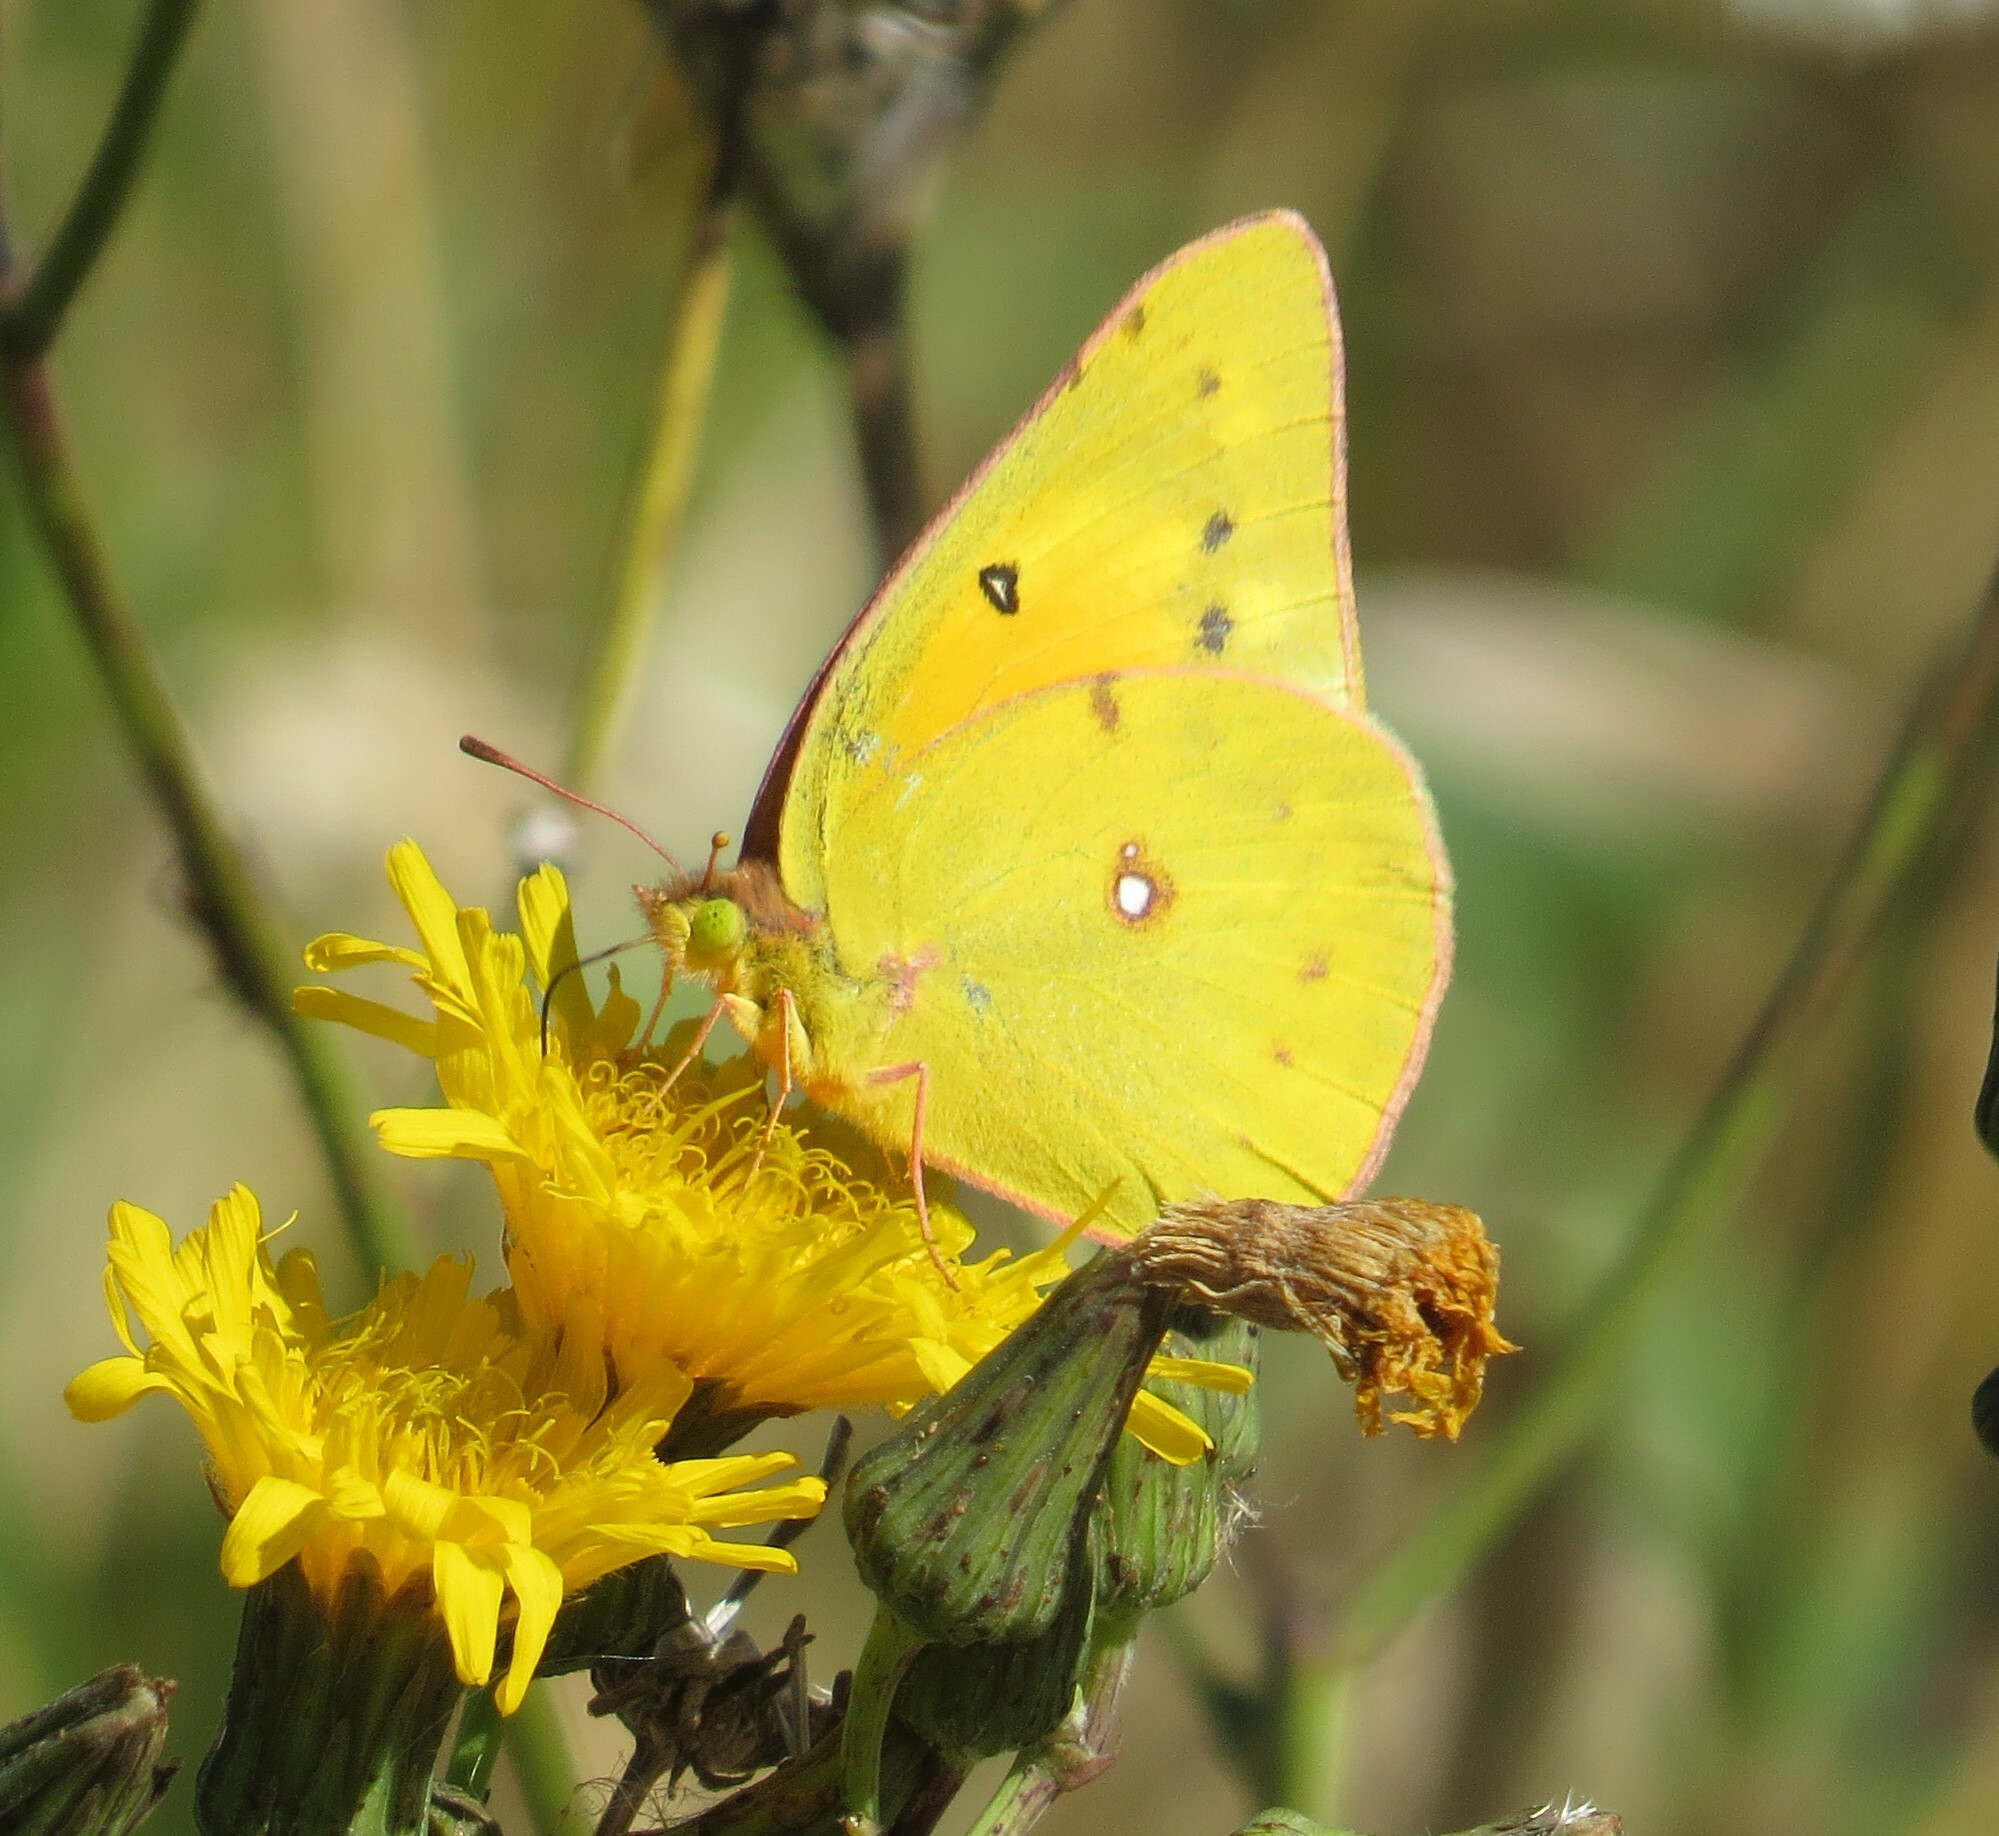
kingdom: Animalia
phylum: Arthropoda
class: Insecta
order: Lepidoptera
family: Pieridae
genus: Colias
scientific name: Colias eurytheme
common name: Alfalfa butterfly
